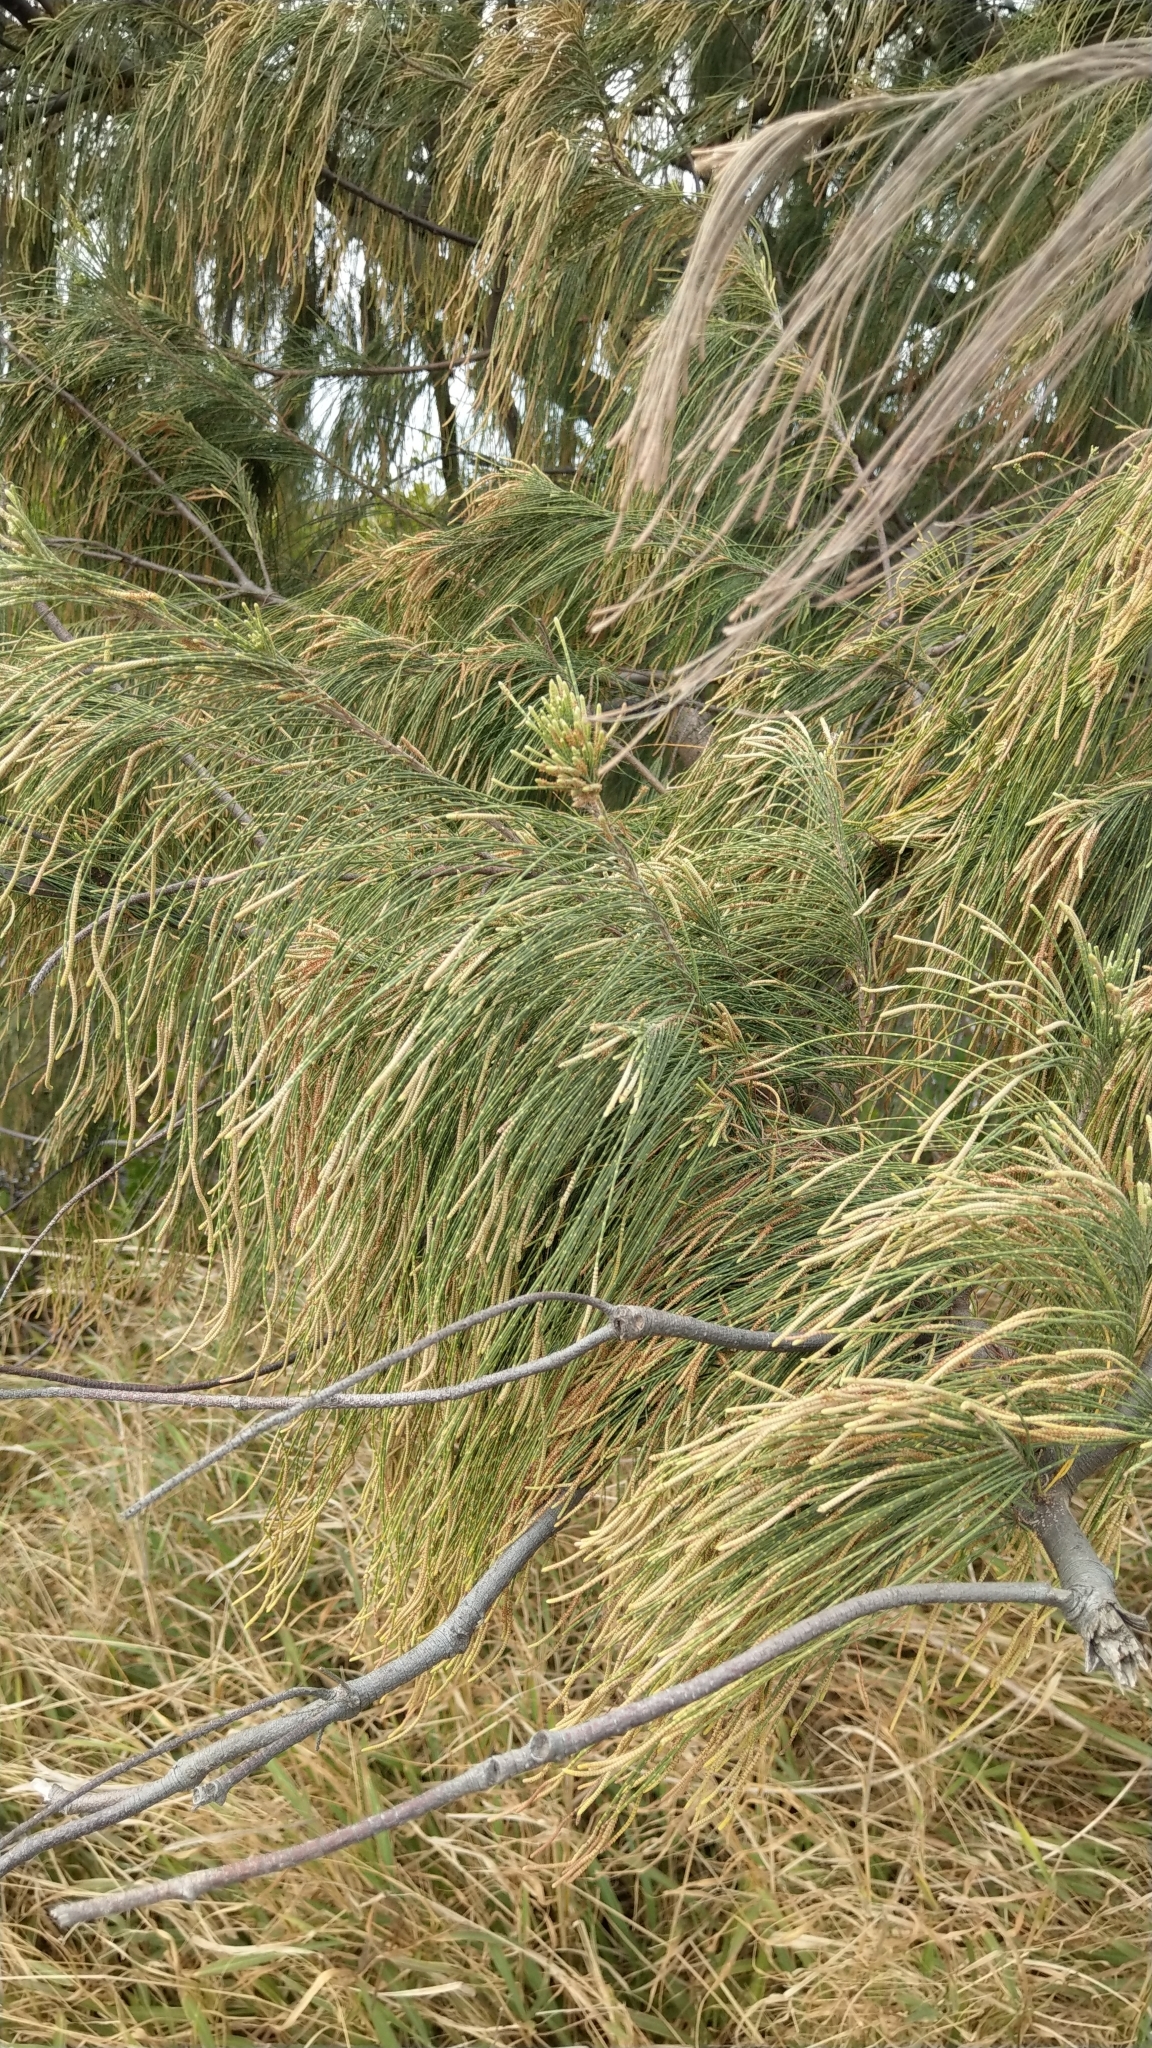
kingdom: Plantae
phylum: Tracheophyta
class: Magnoliopsida
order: Fagales
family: Casuarinaceae
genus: Casuarina
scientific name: Casuarina equisetifolia
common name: Beach sheoak
